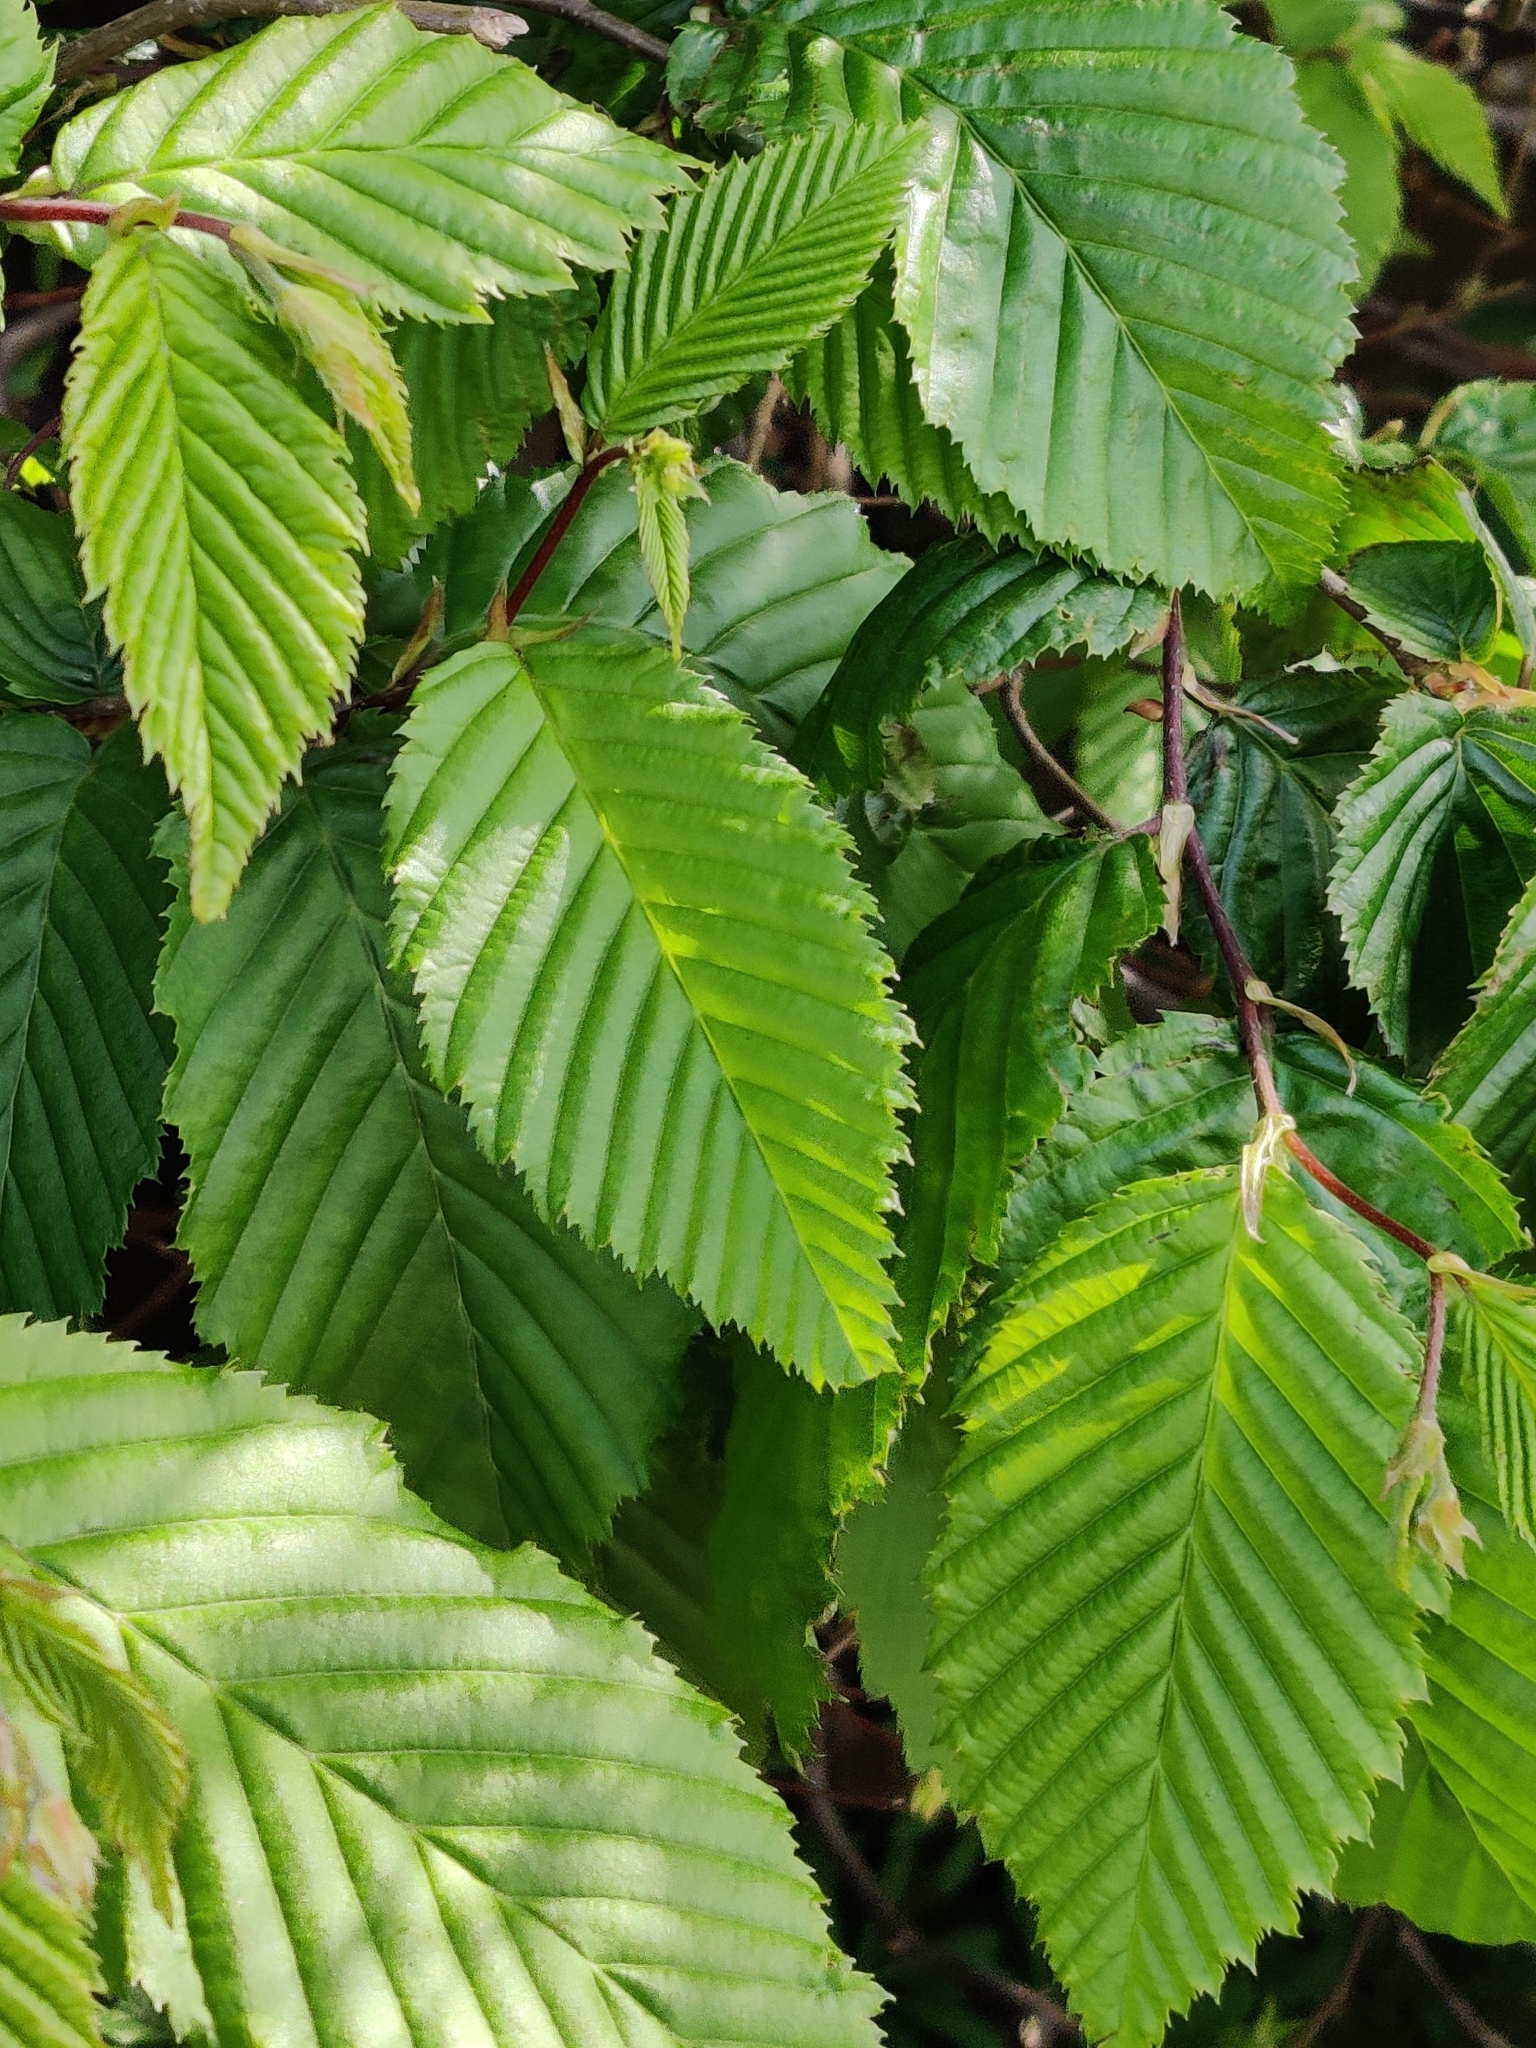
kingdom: Plantae
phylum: Tracheophyta
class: Magnoliopsida
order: Fagales
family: Betulaceae
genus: Carpinus
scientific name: Carpinus betulus
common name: Hornbeam
